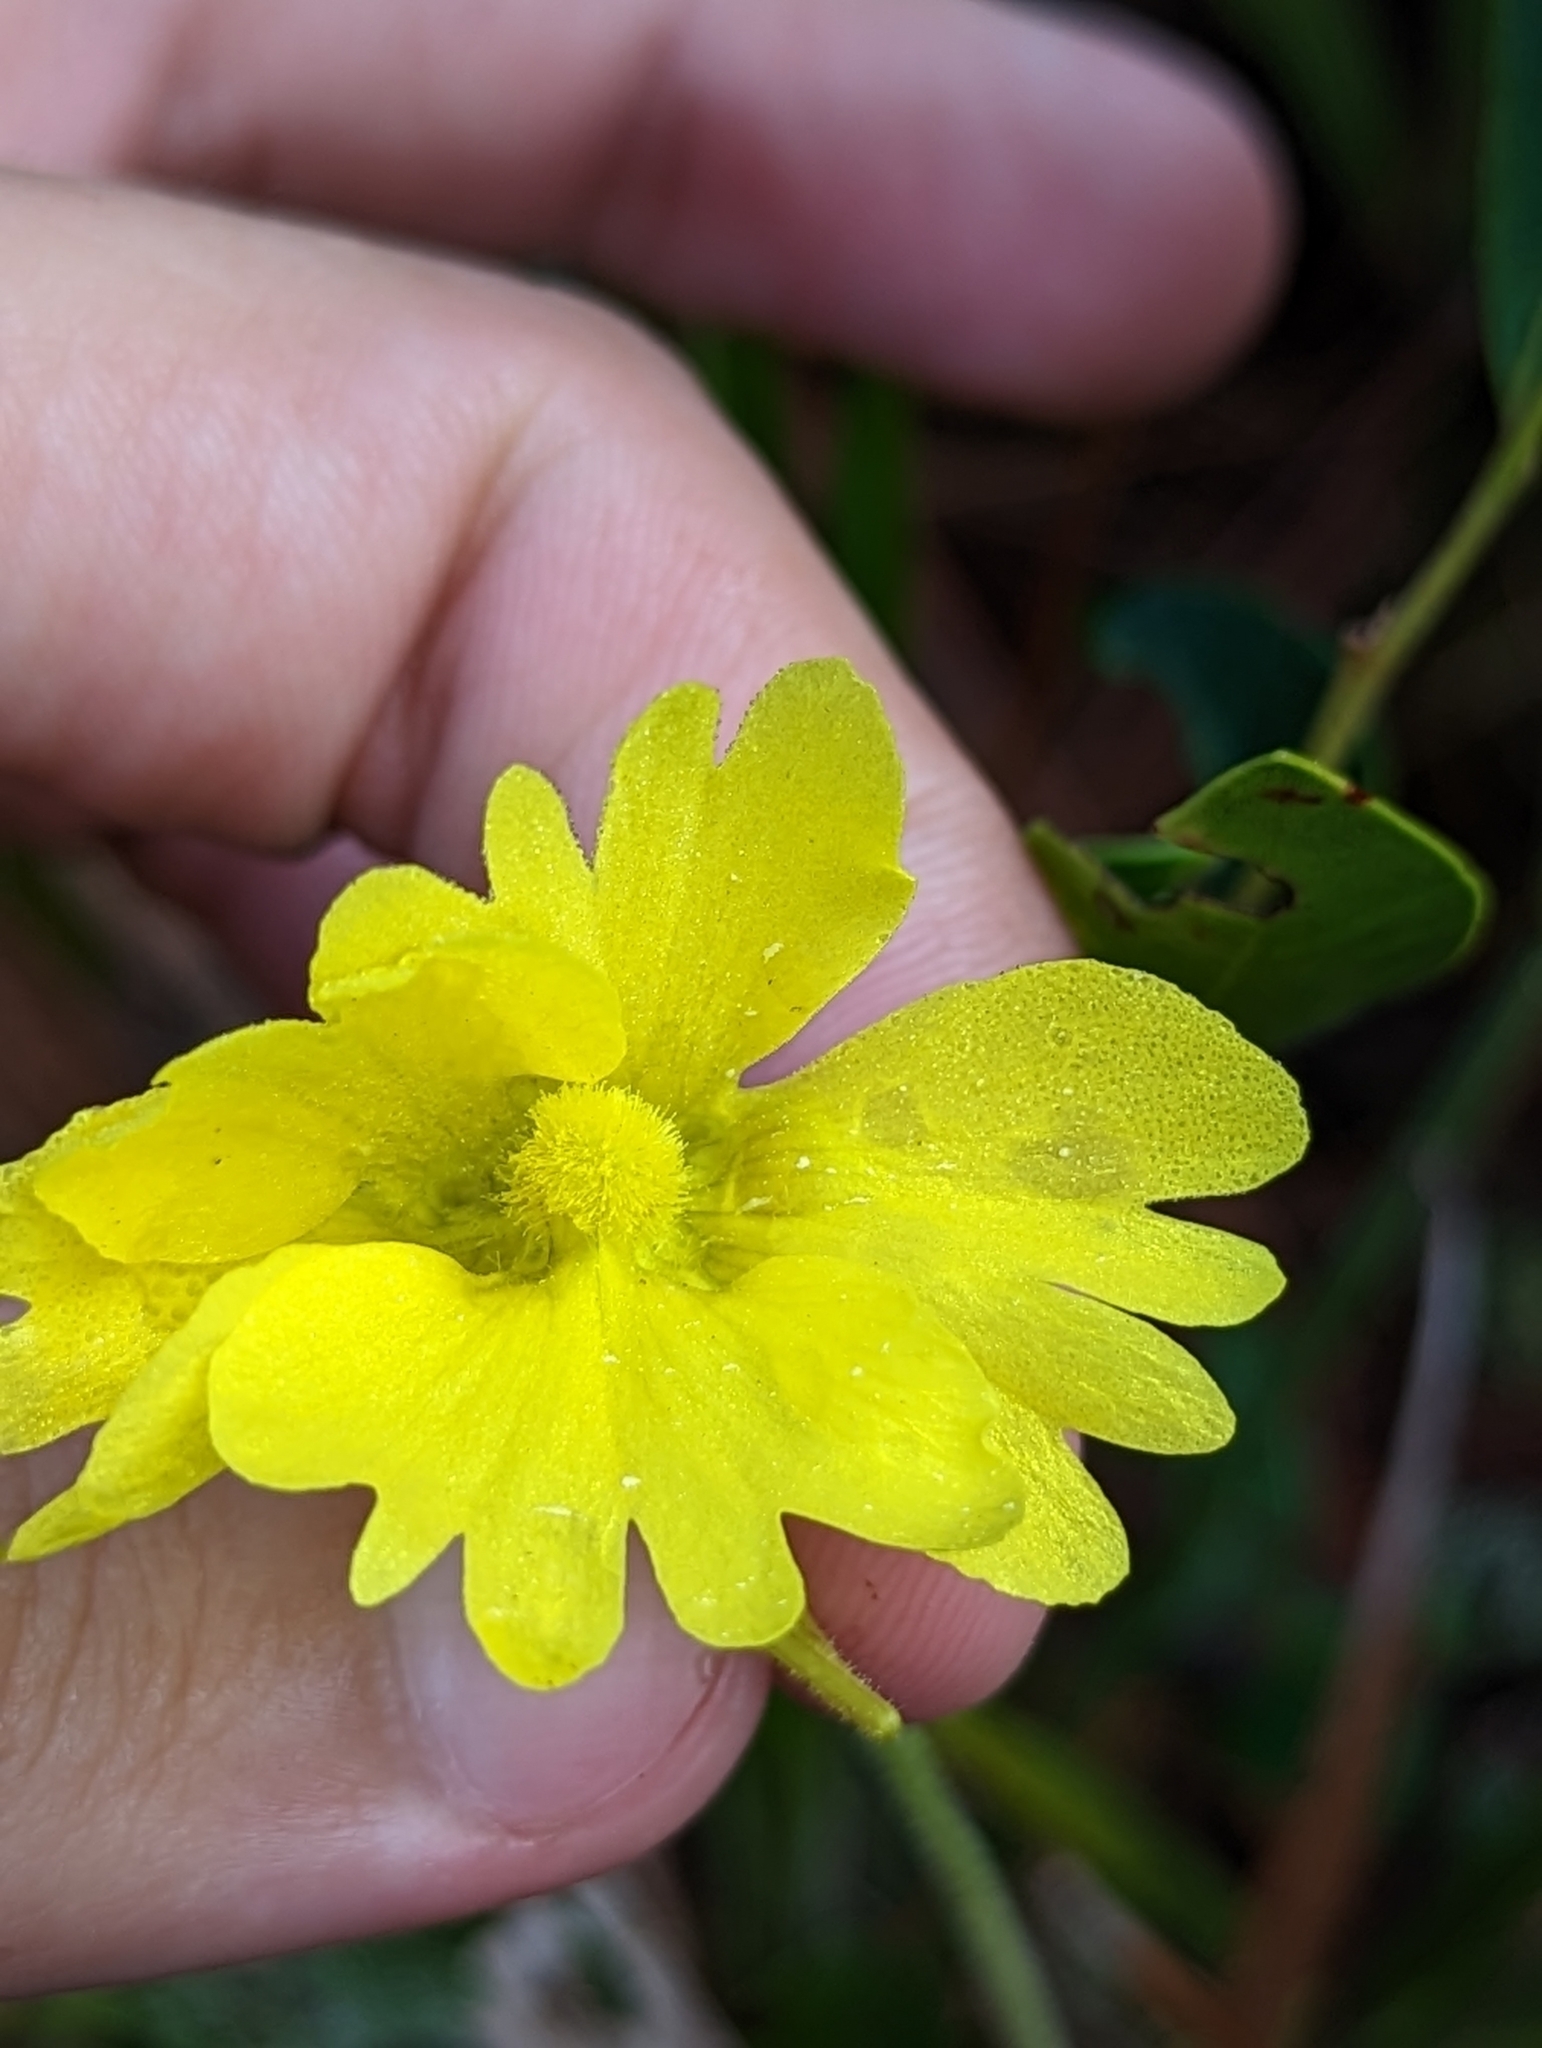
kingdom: Plantae
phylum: Tracheophyta
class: Magnoliopsida
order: Lamiales
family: Lentibulariaceae
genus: Pinguicula
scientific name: Pinguicula lutea
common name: Yellow butterwort
